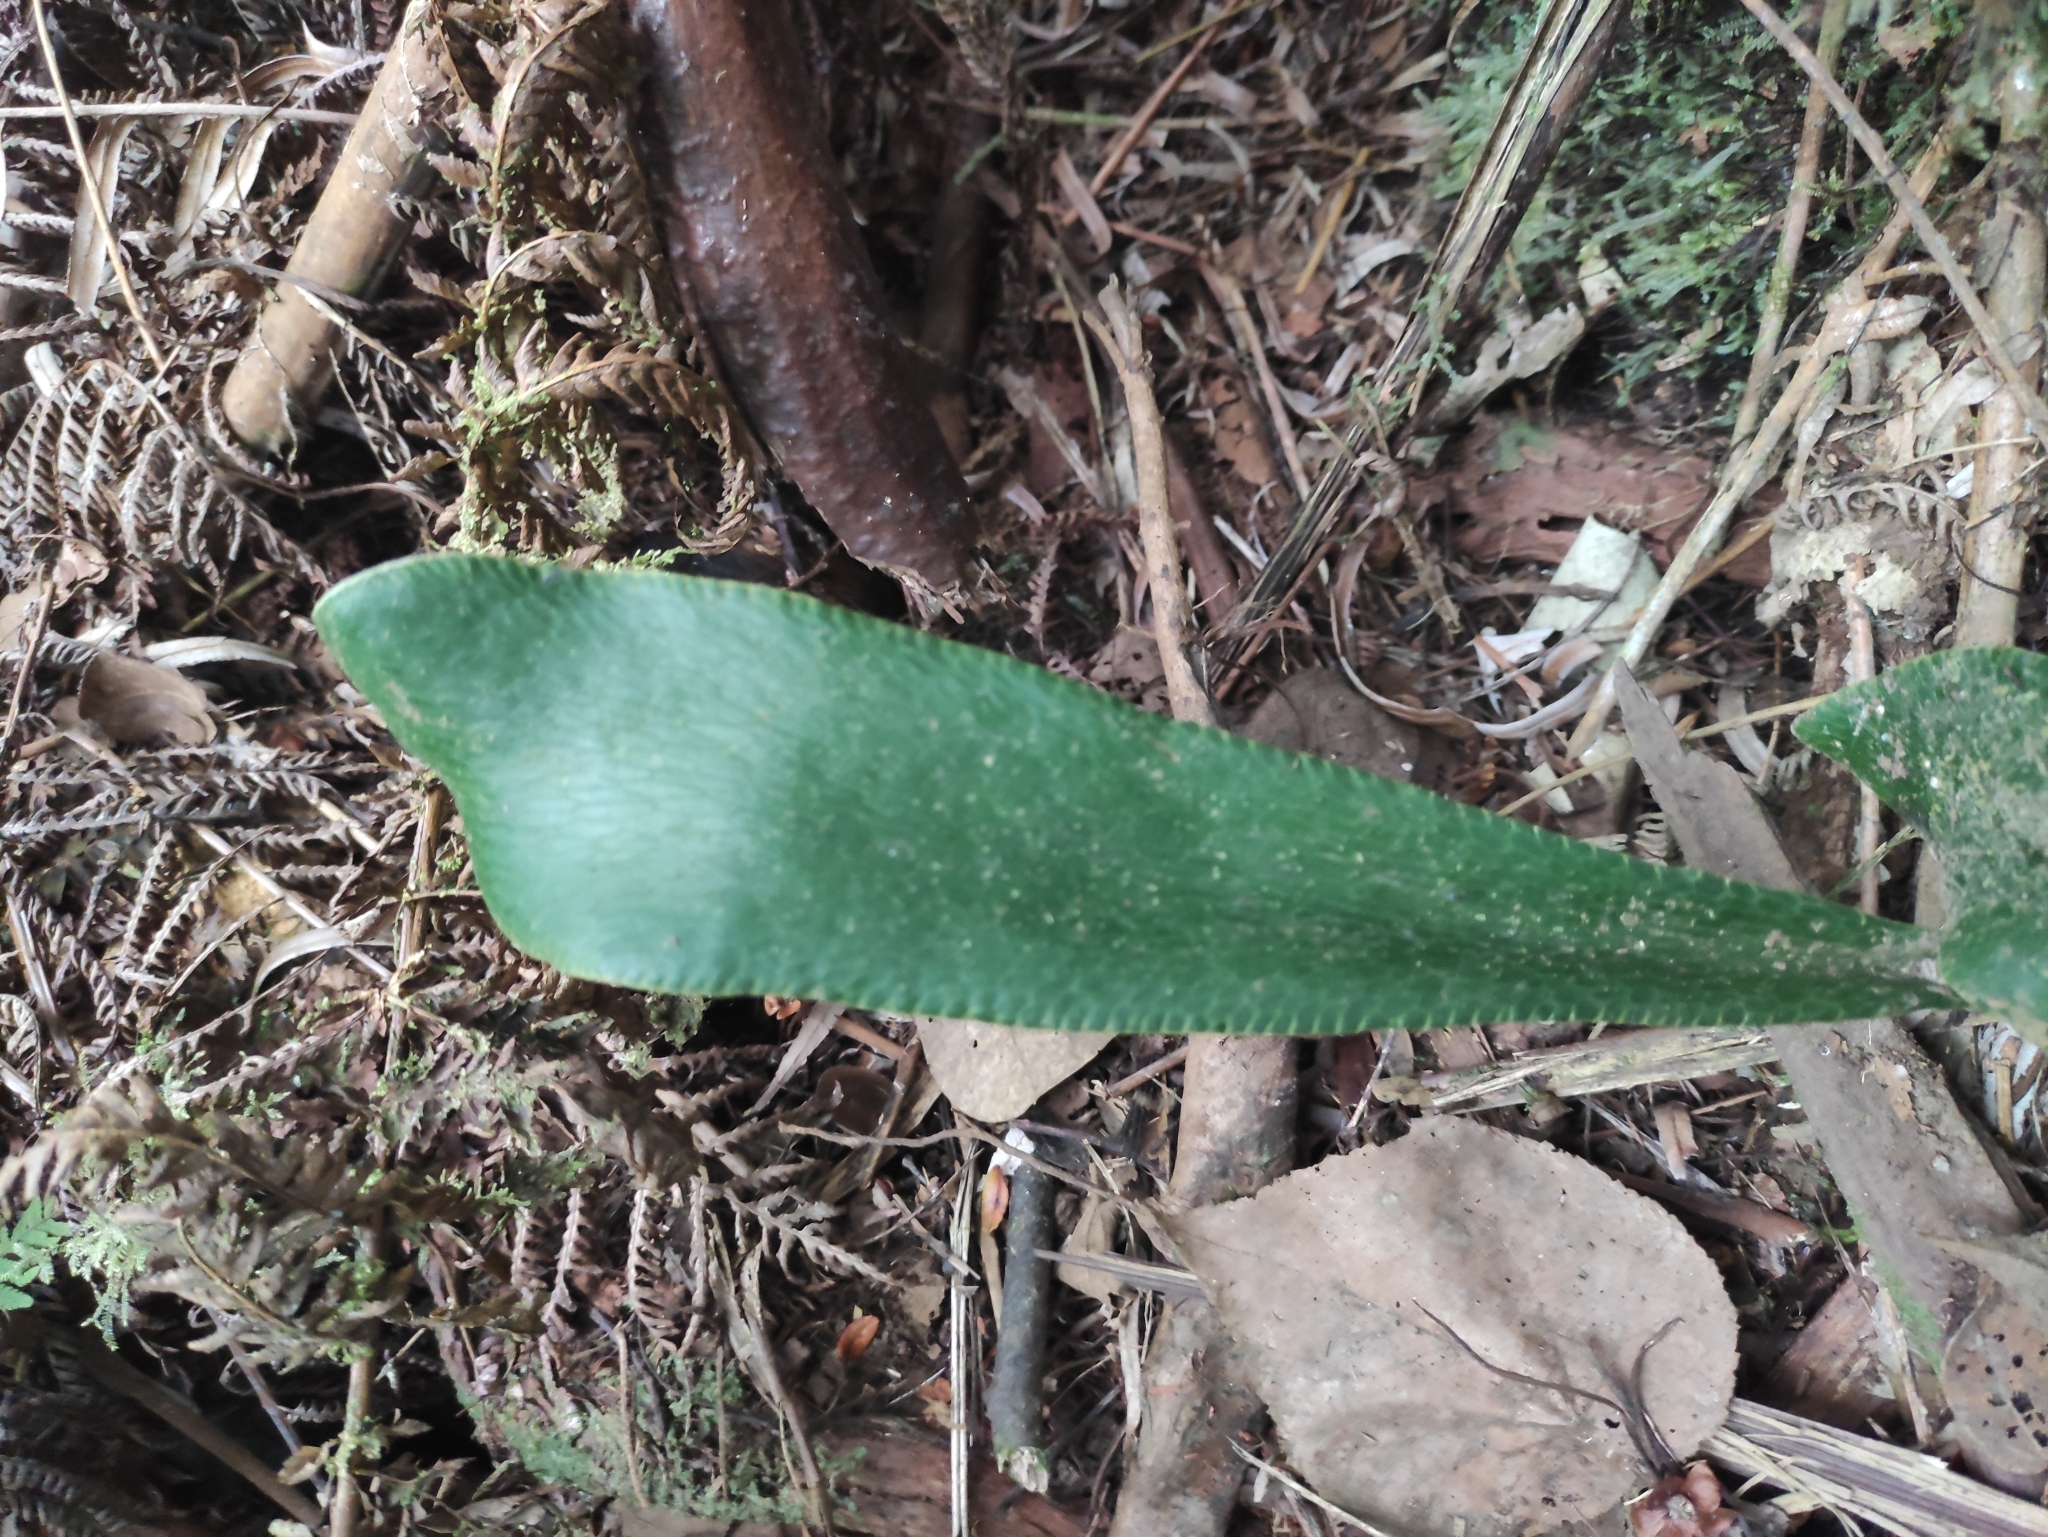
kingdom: Plantae
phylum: Tracheophyta
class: Polypodiopsida
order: Polypodiales
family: Pteridaceae
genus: Antrophyopsis
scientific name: Antrophyopsis boryana
